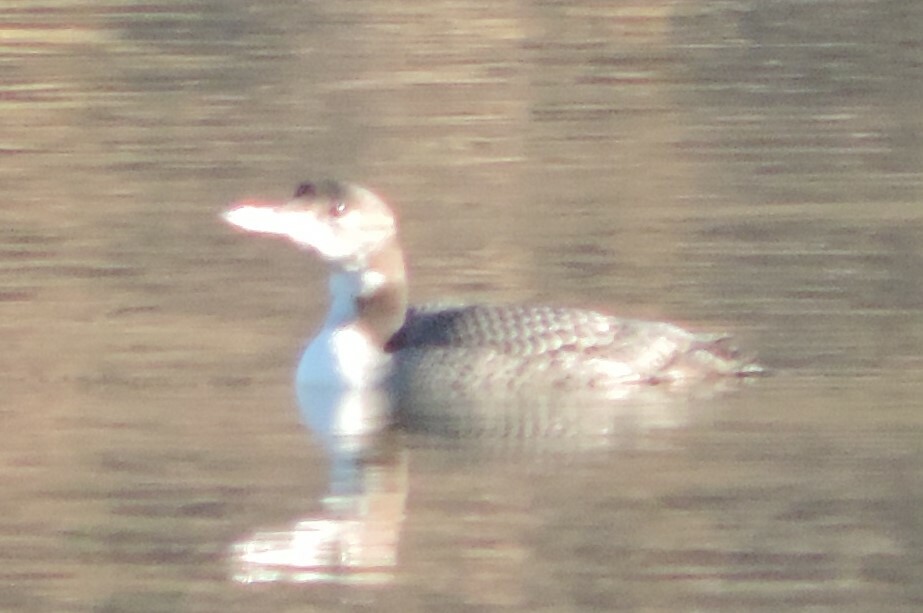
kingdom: Animalia
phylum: Chordata
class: Aves
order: Gaviiformes
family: Gaviidae
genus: Gavia
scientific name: Gavia immer
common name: Common loon
